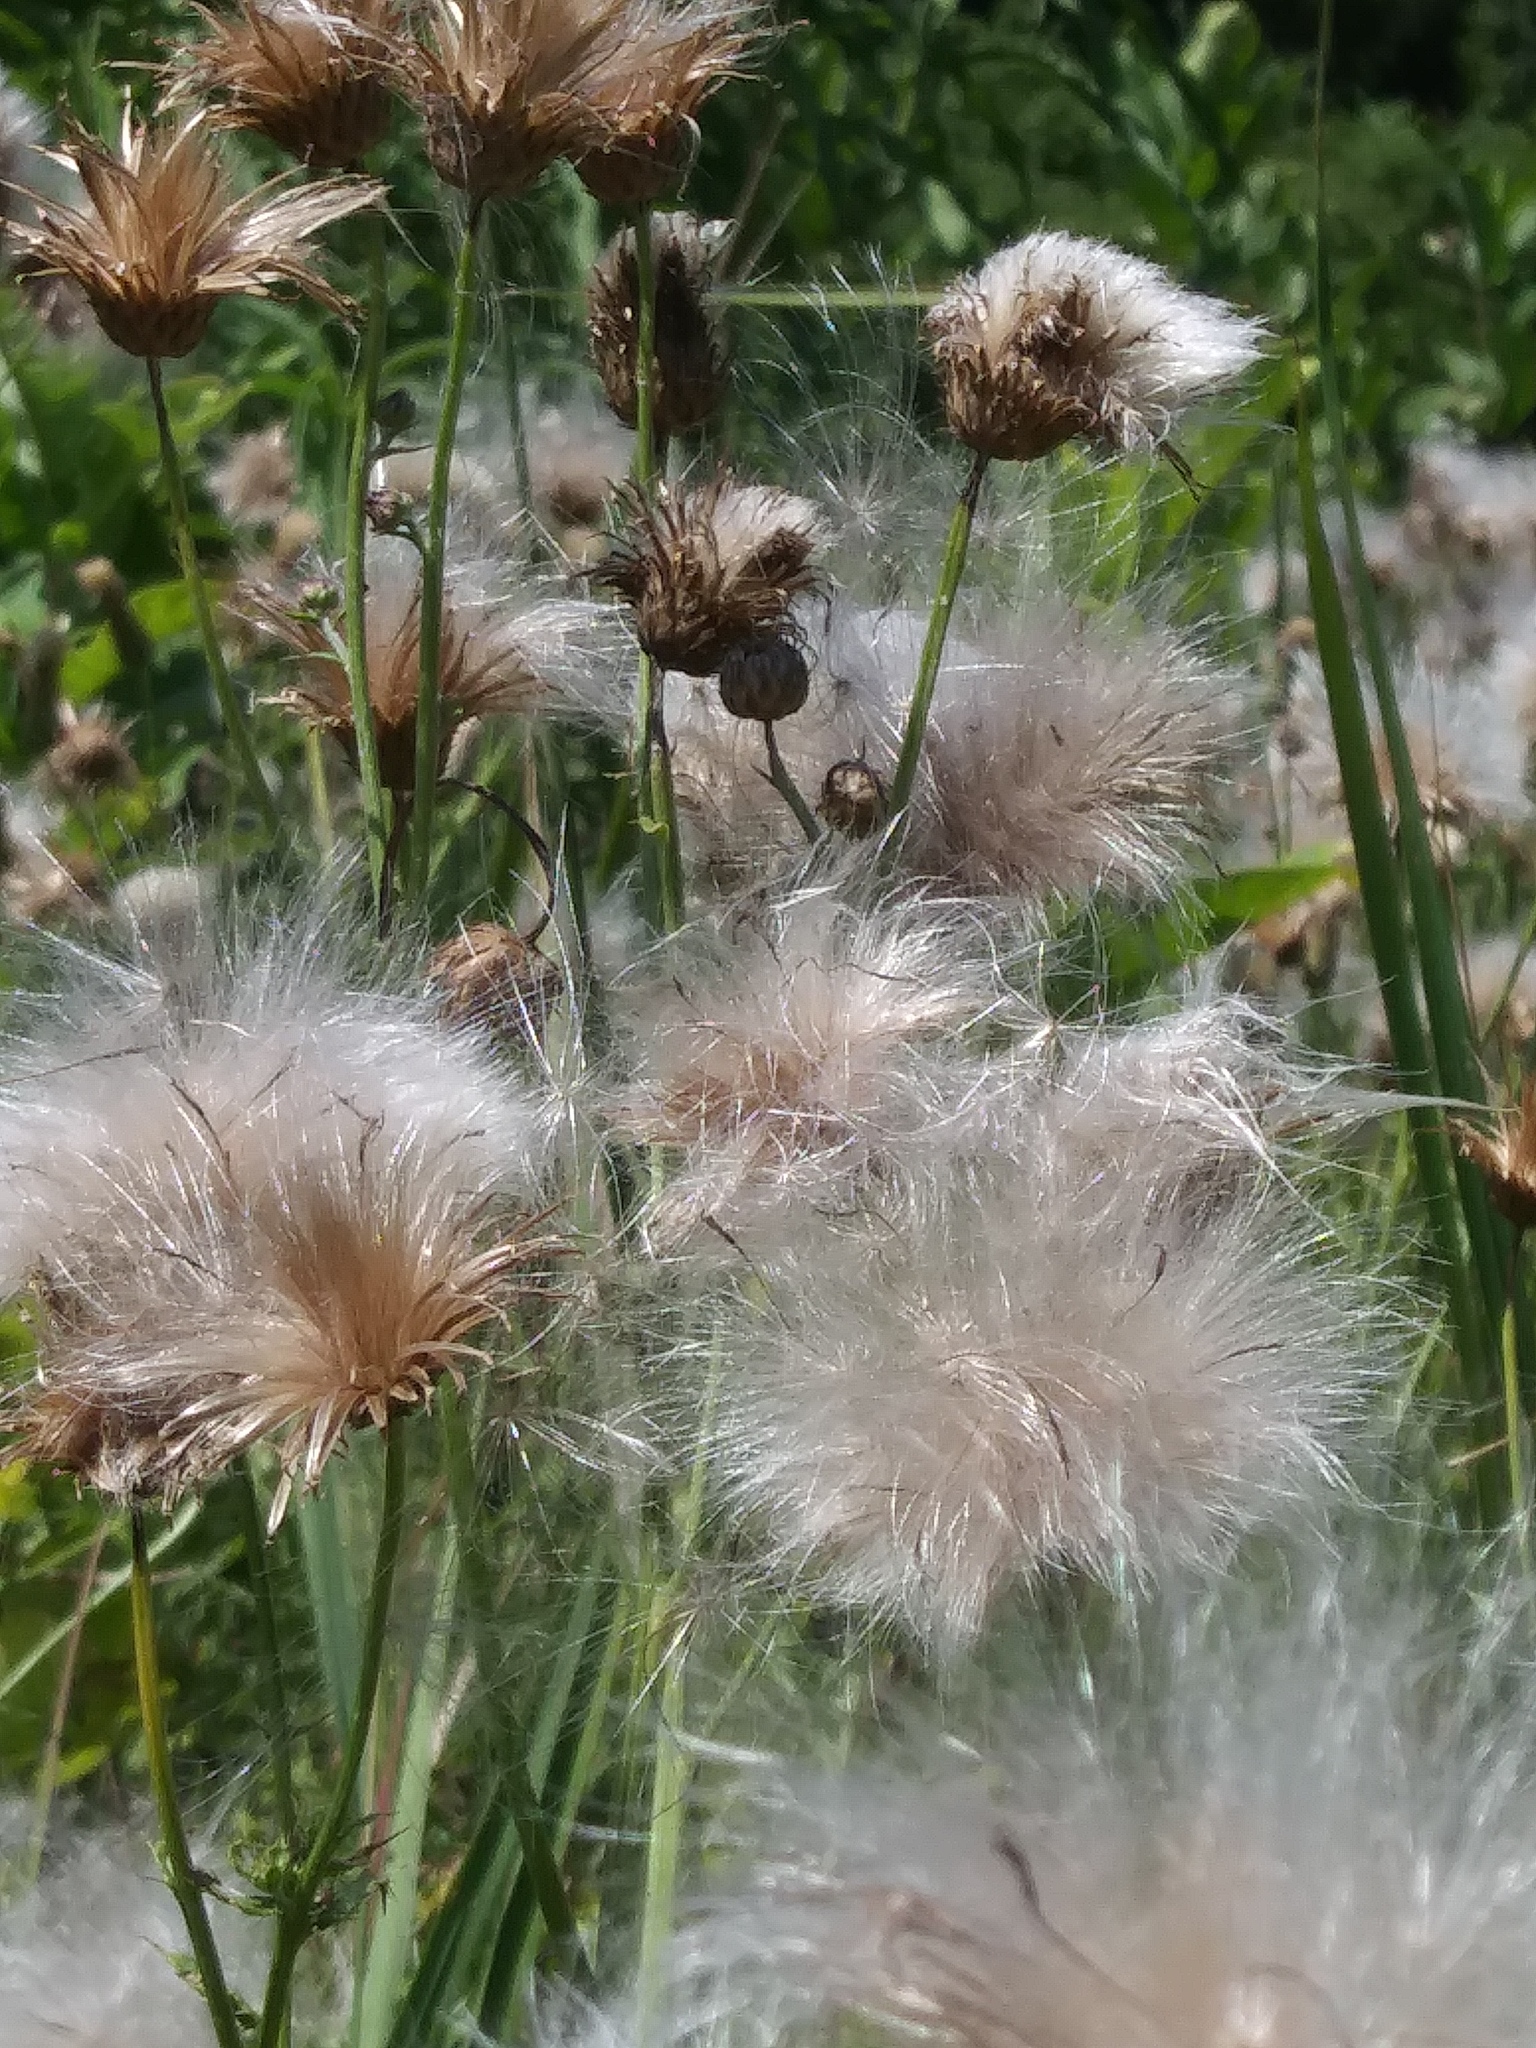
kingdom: Plantae
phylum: Tracheophyta
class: Magnoliopsida
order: Asterales
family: Asteraceae
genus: Cirsium
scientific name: Cirsium arvense
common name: Creeping thistle
